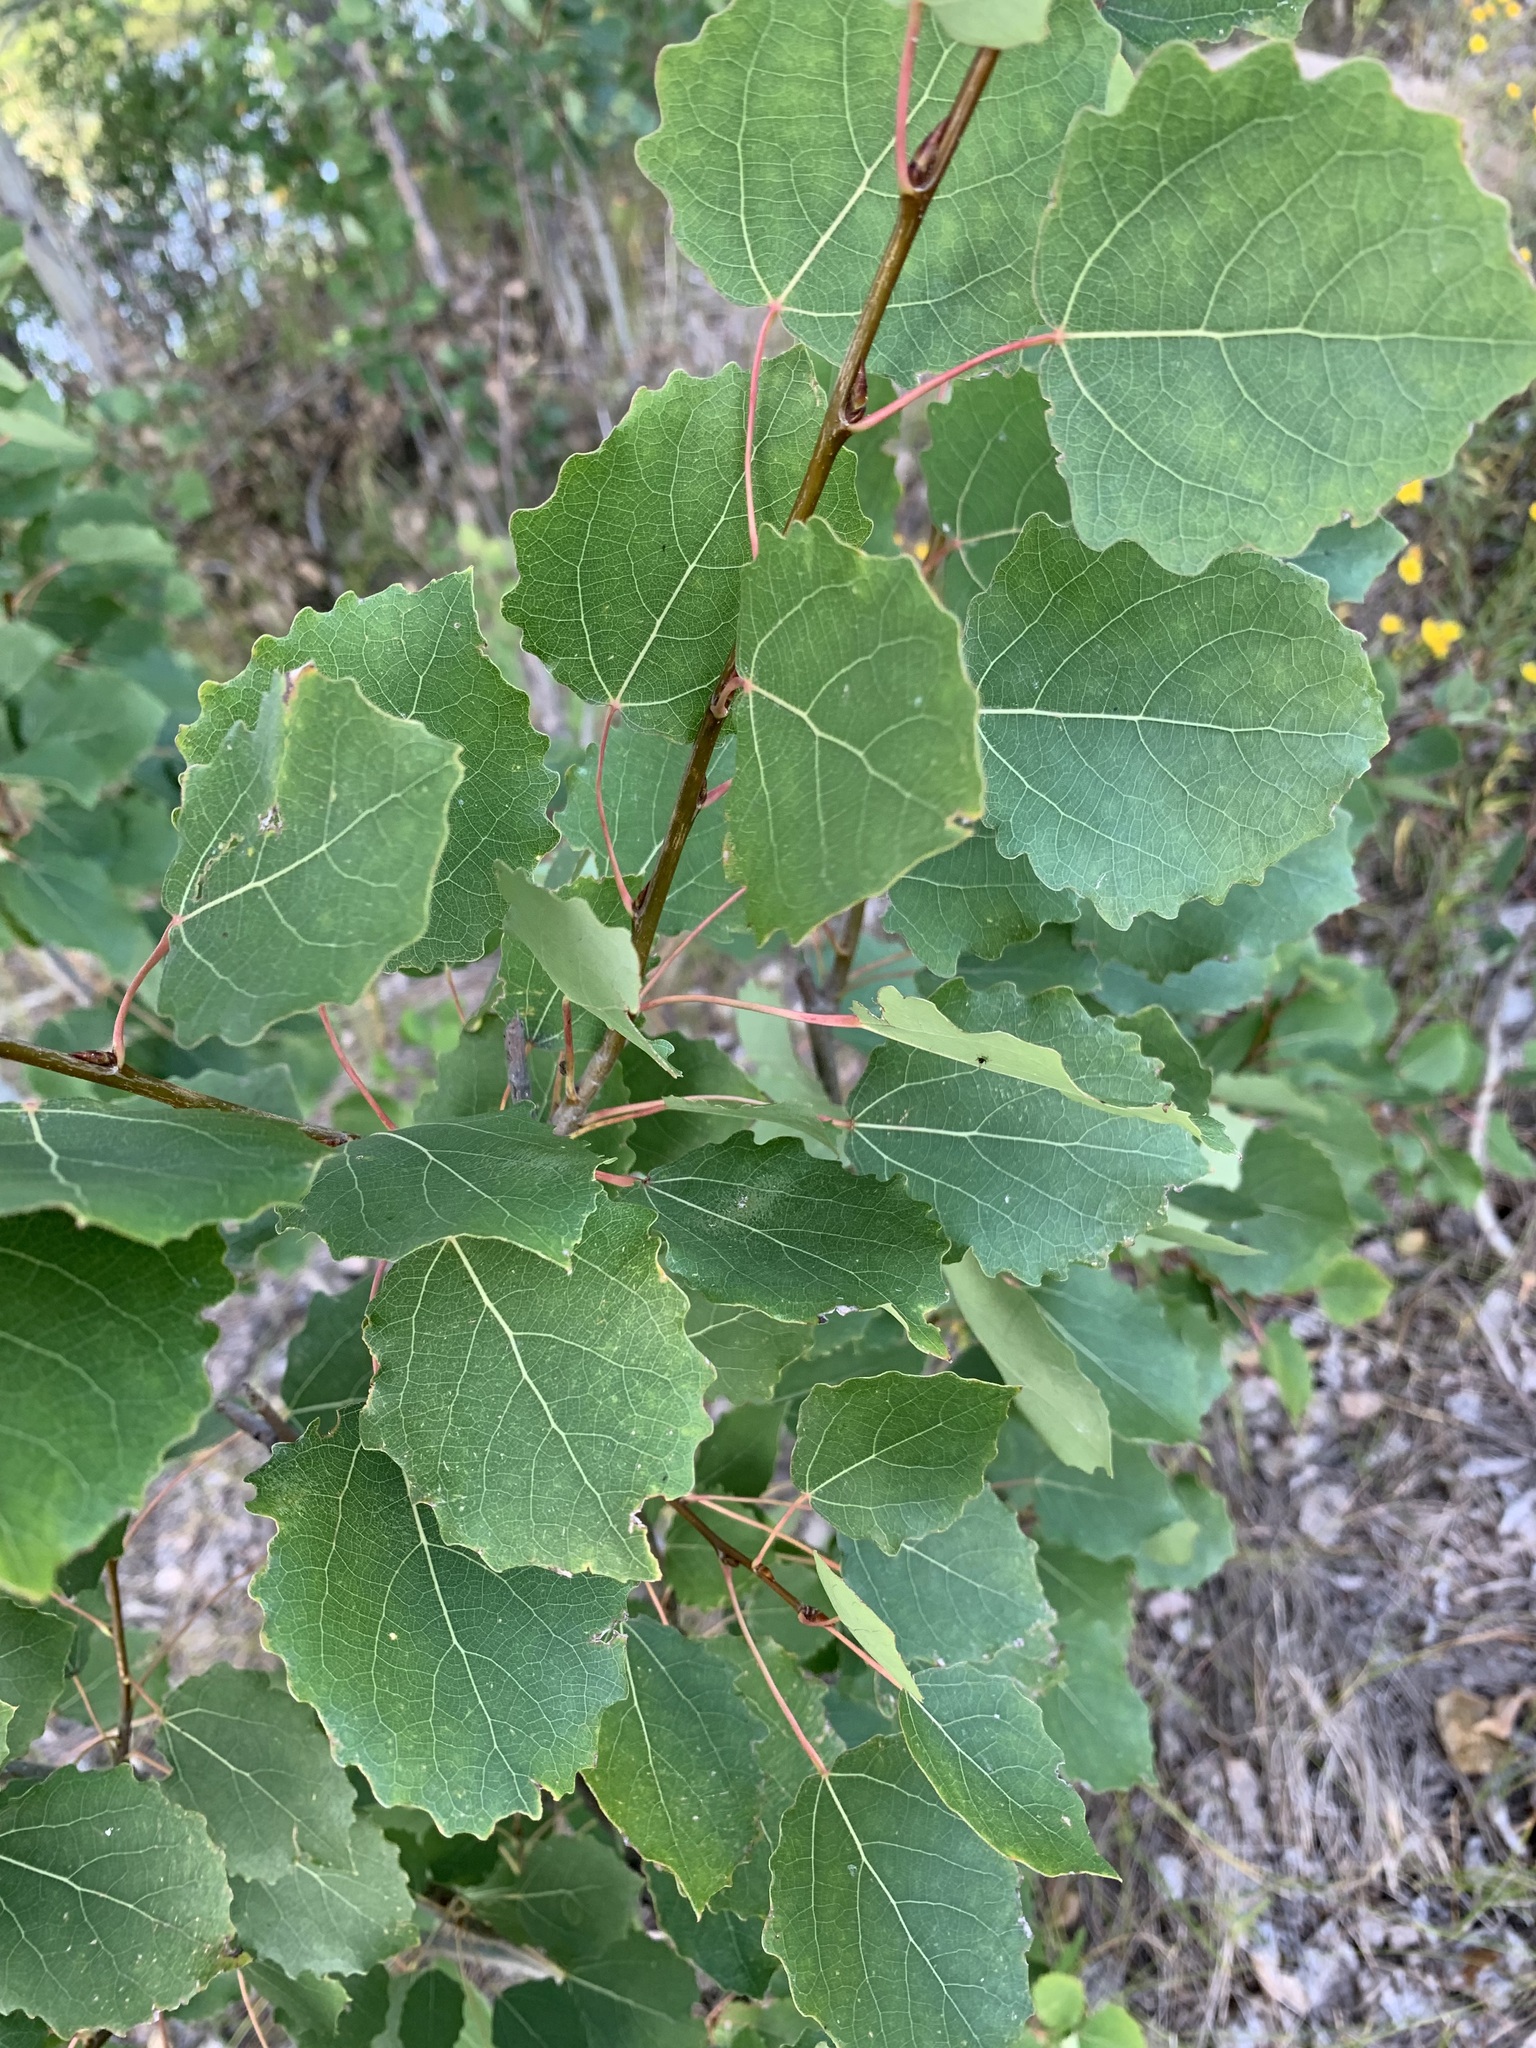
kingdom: Plantae
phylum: Tracheophyta
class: Magnoliopsida
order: Malpighiales
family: Salicaceae
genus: Populus
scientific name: Populus tremula
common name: European aspen
